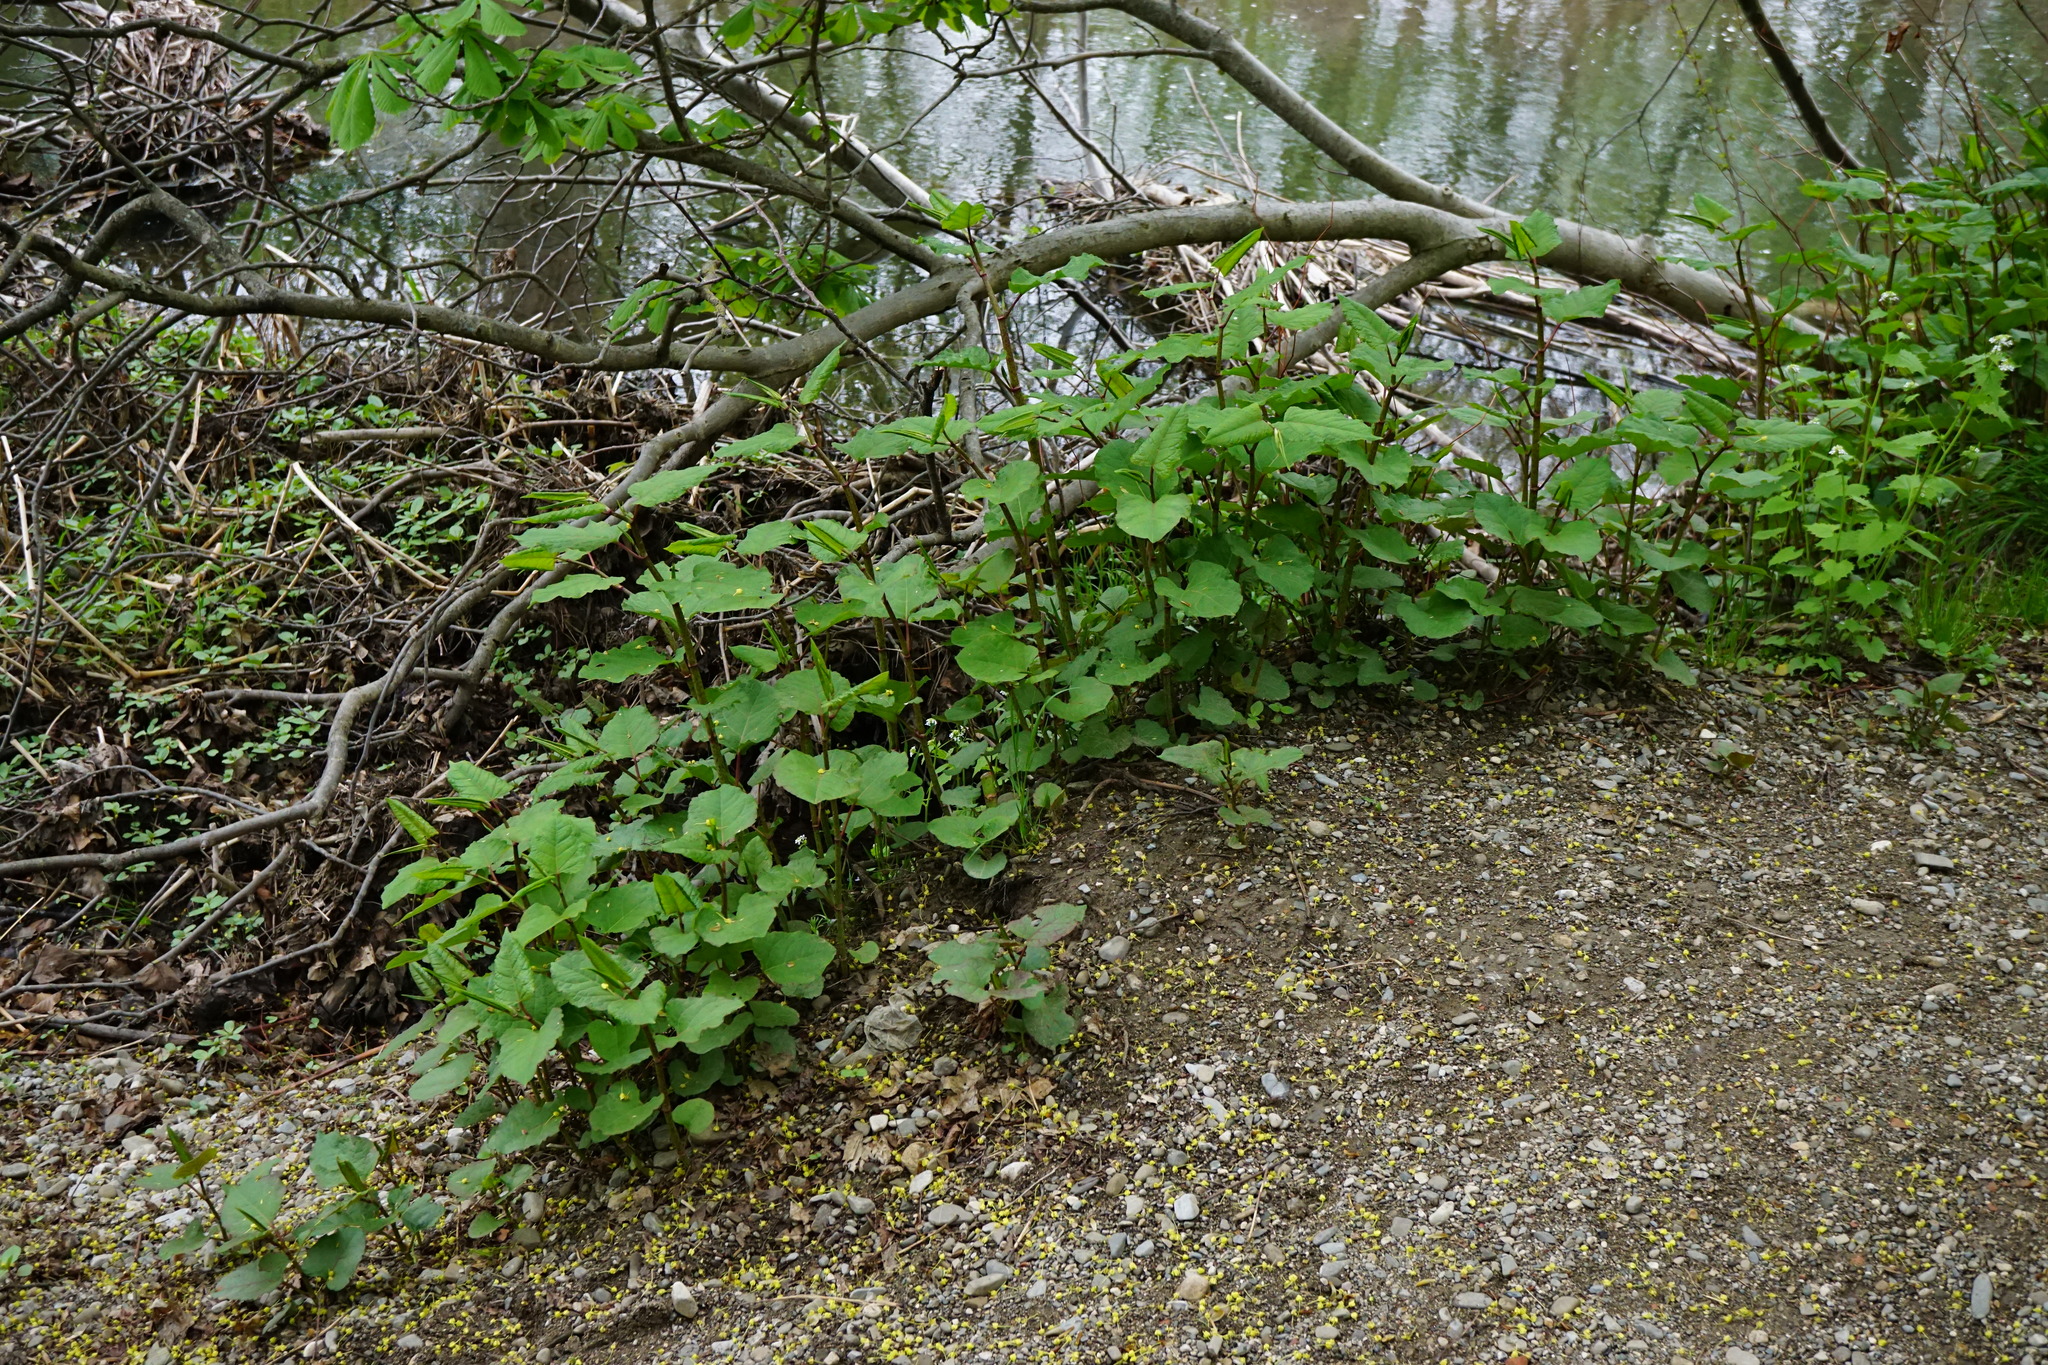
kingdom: Plantae
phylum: Tracheophyta
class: Magnoliopsida
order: Caryophyllales
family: Polygonaceae
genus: Reynoutria
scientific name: Reynoutria bohemica
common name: Bohemian knotweed
